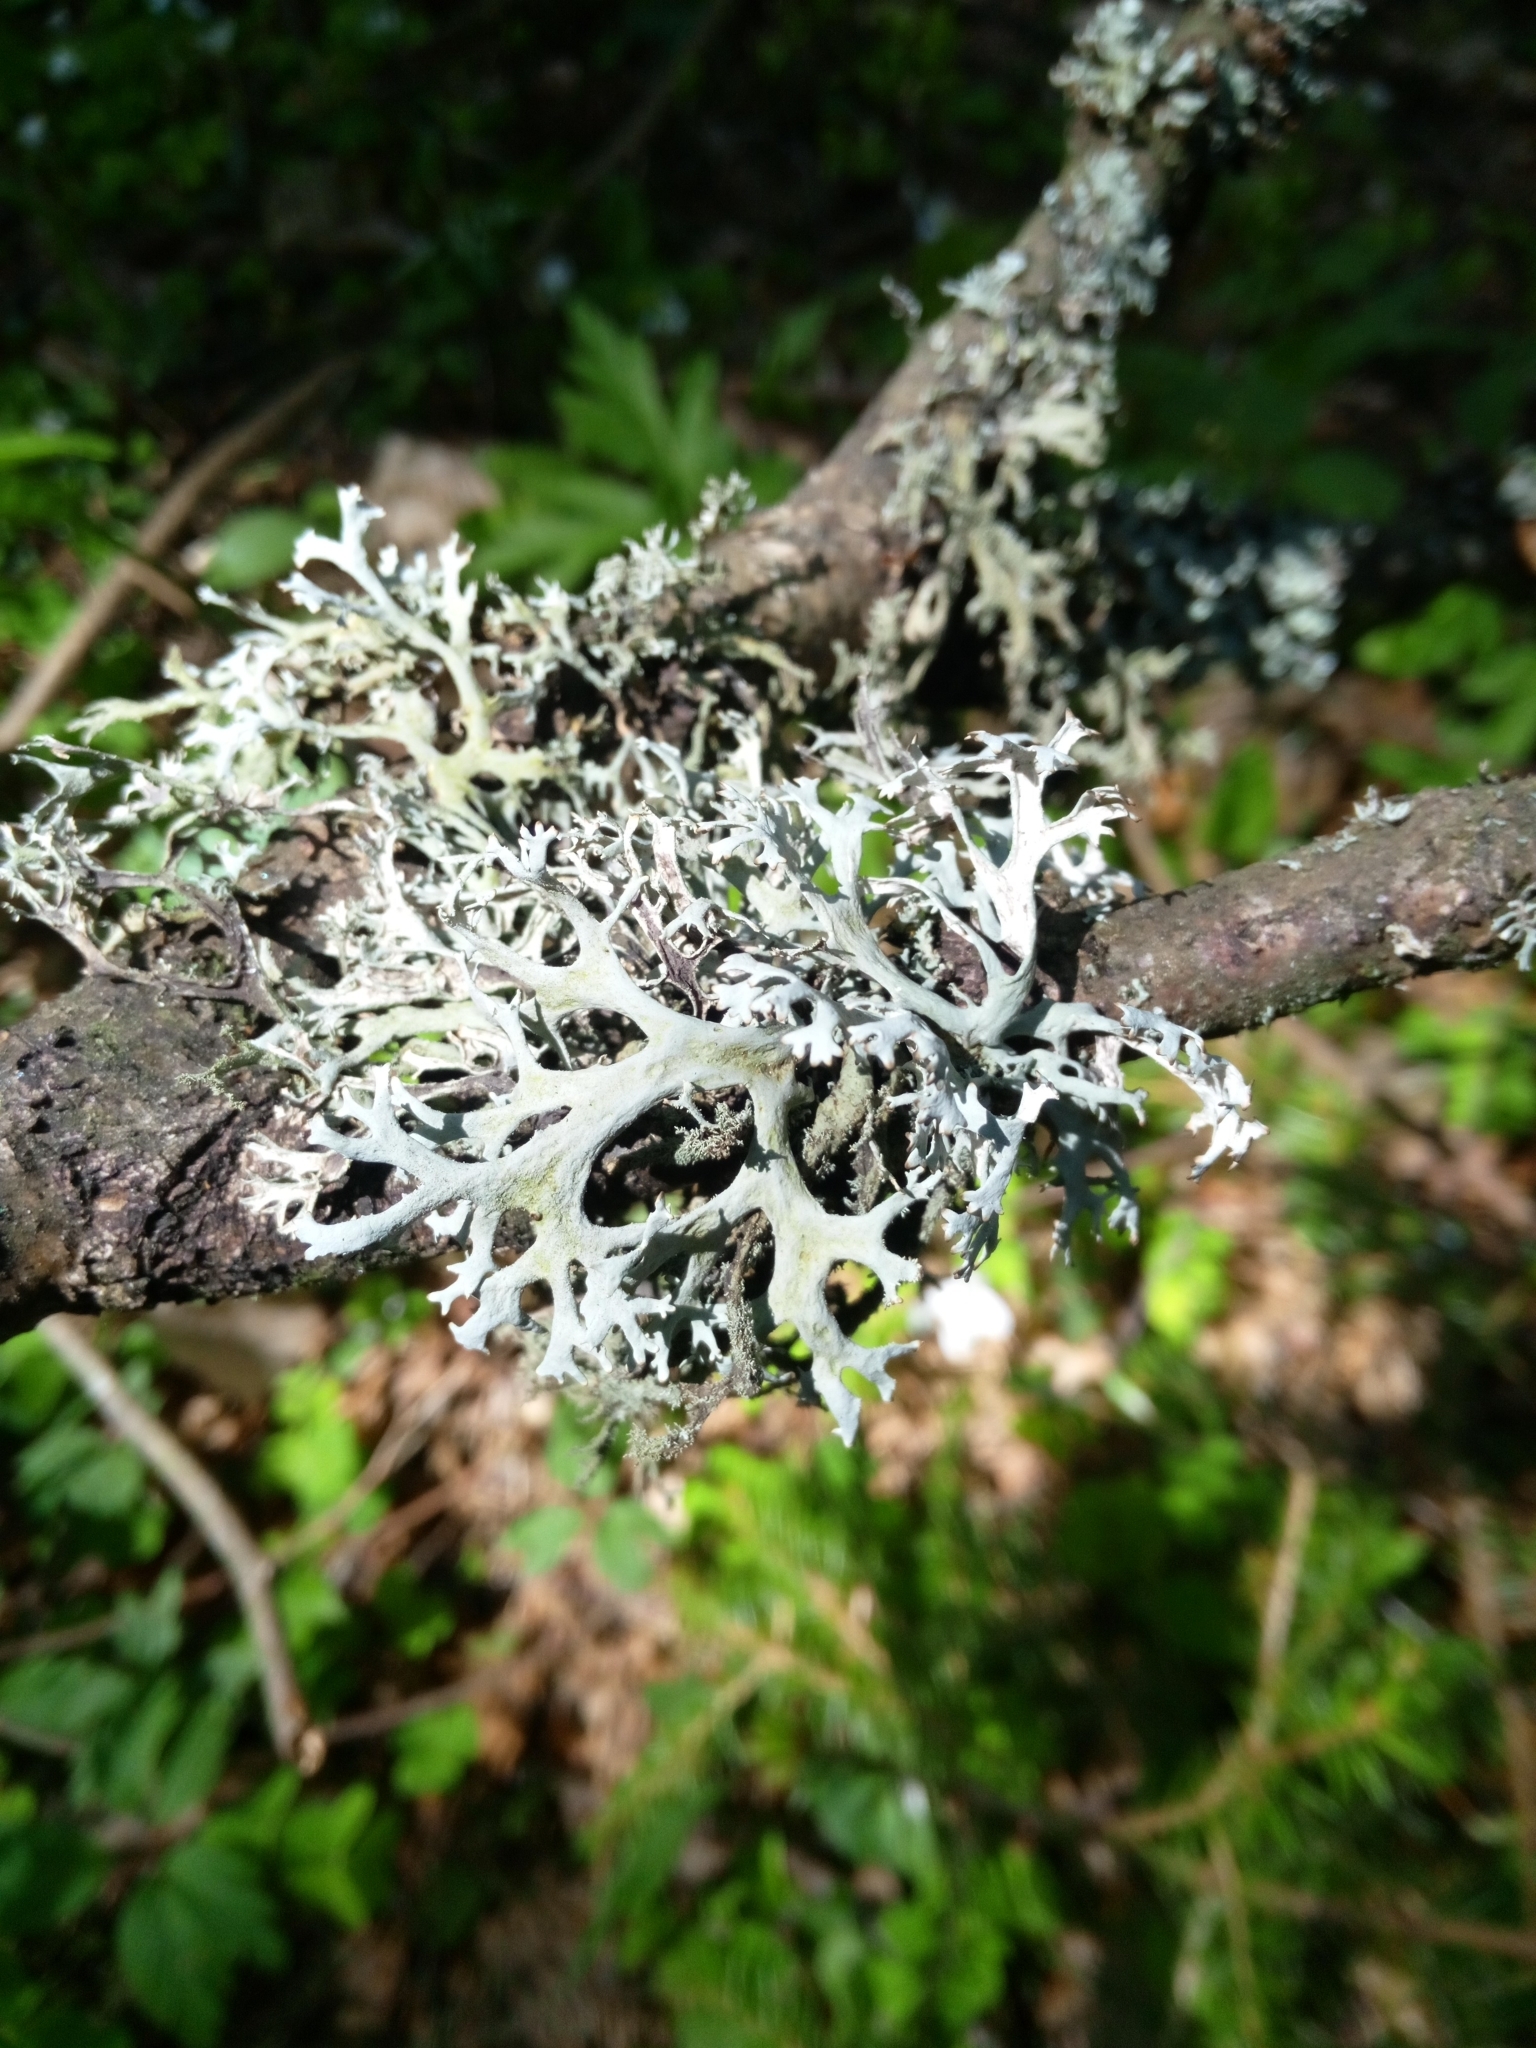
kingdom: Fungi
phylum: Ascomycota
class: Lecanoromycetes
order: Lecanorales
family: Parmeliaceae
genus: Pseudevernia
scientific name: Pseudevernia furfuracea
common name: Tree moss
